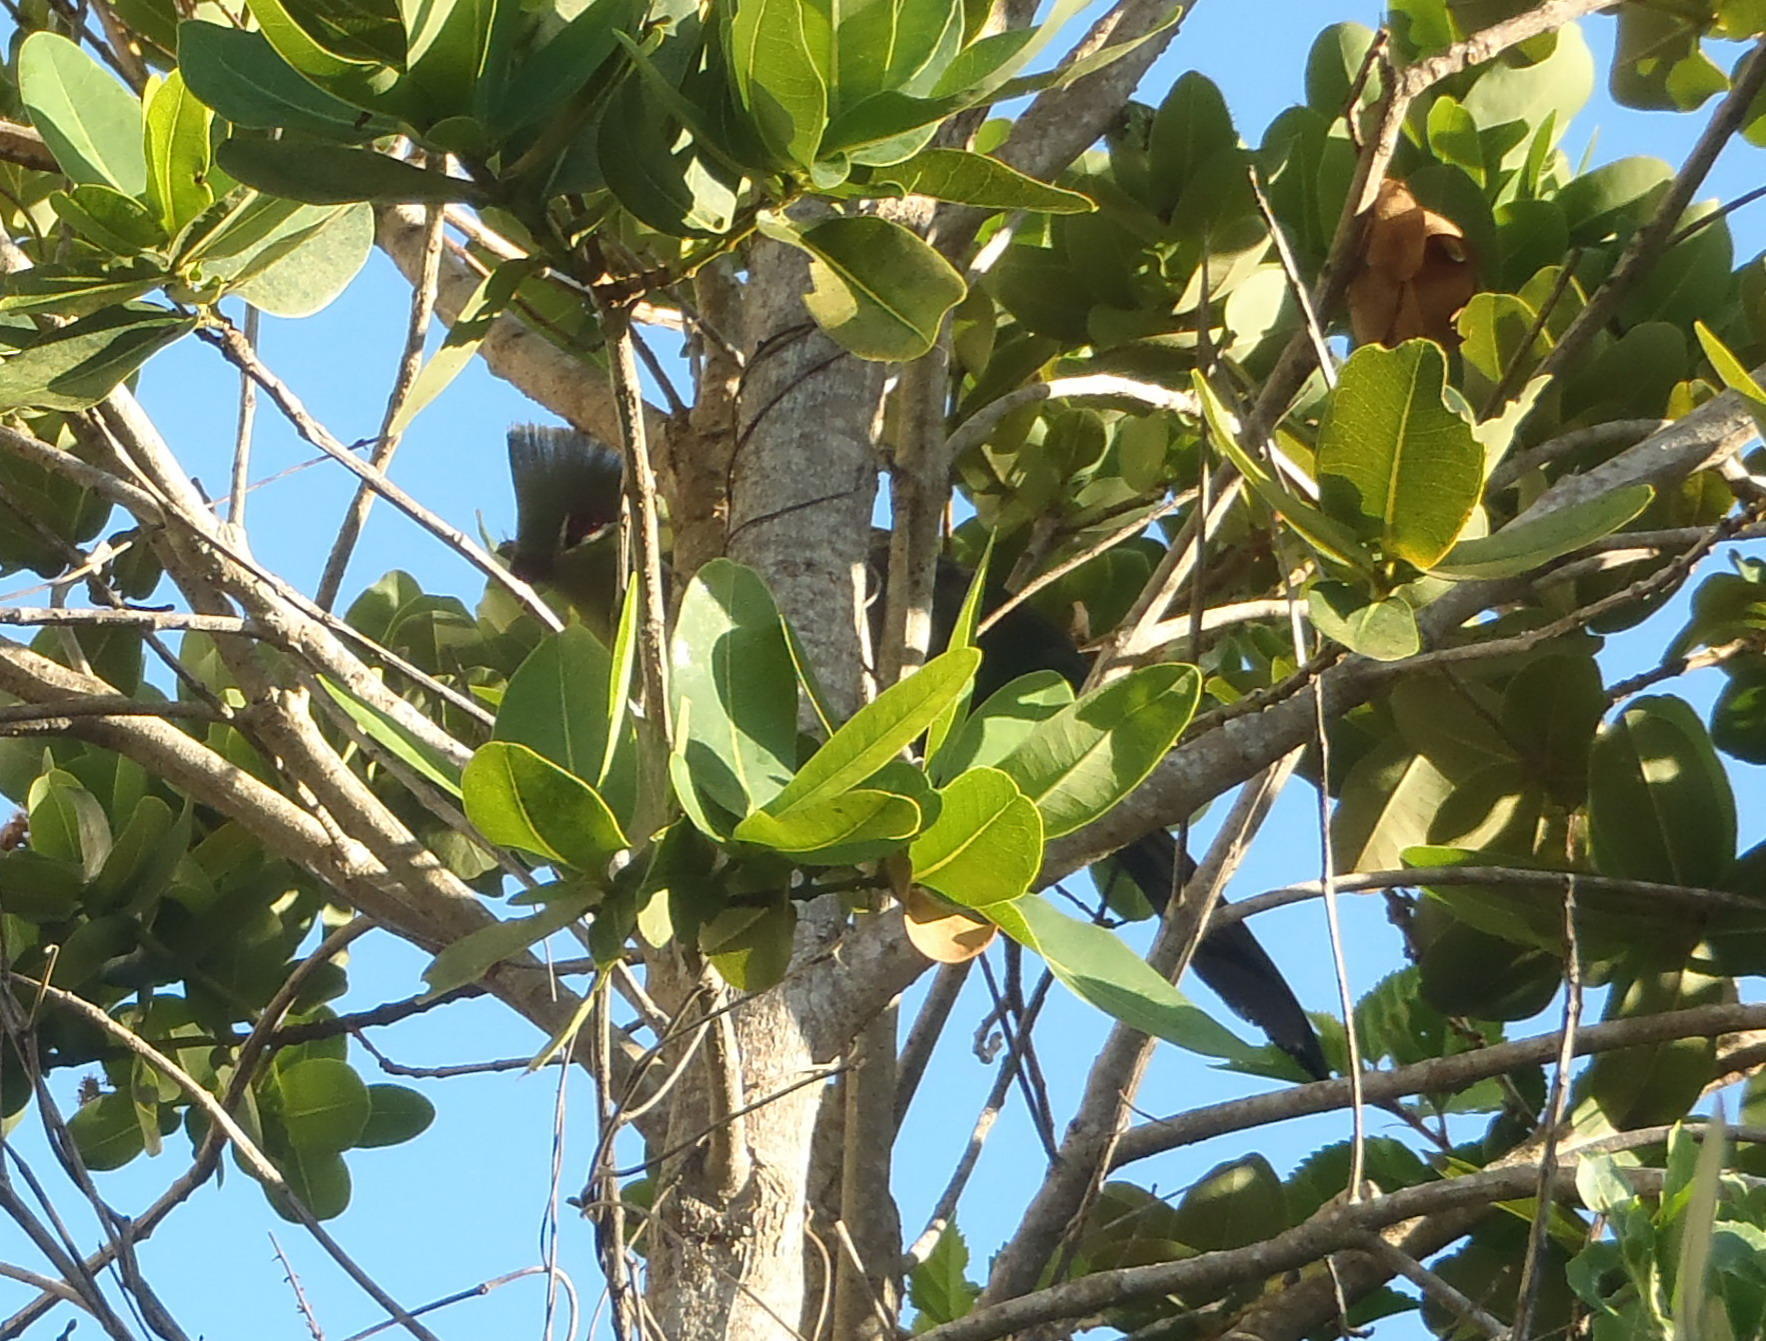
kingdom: Animalia
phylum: Chordata
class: Aves
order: Musophagiformes
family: Musophagidae
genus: Tauraco
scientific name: Tauraco corythaix
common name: Knysna turaco
